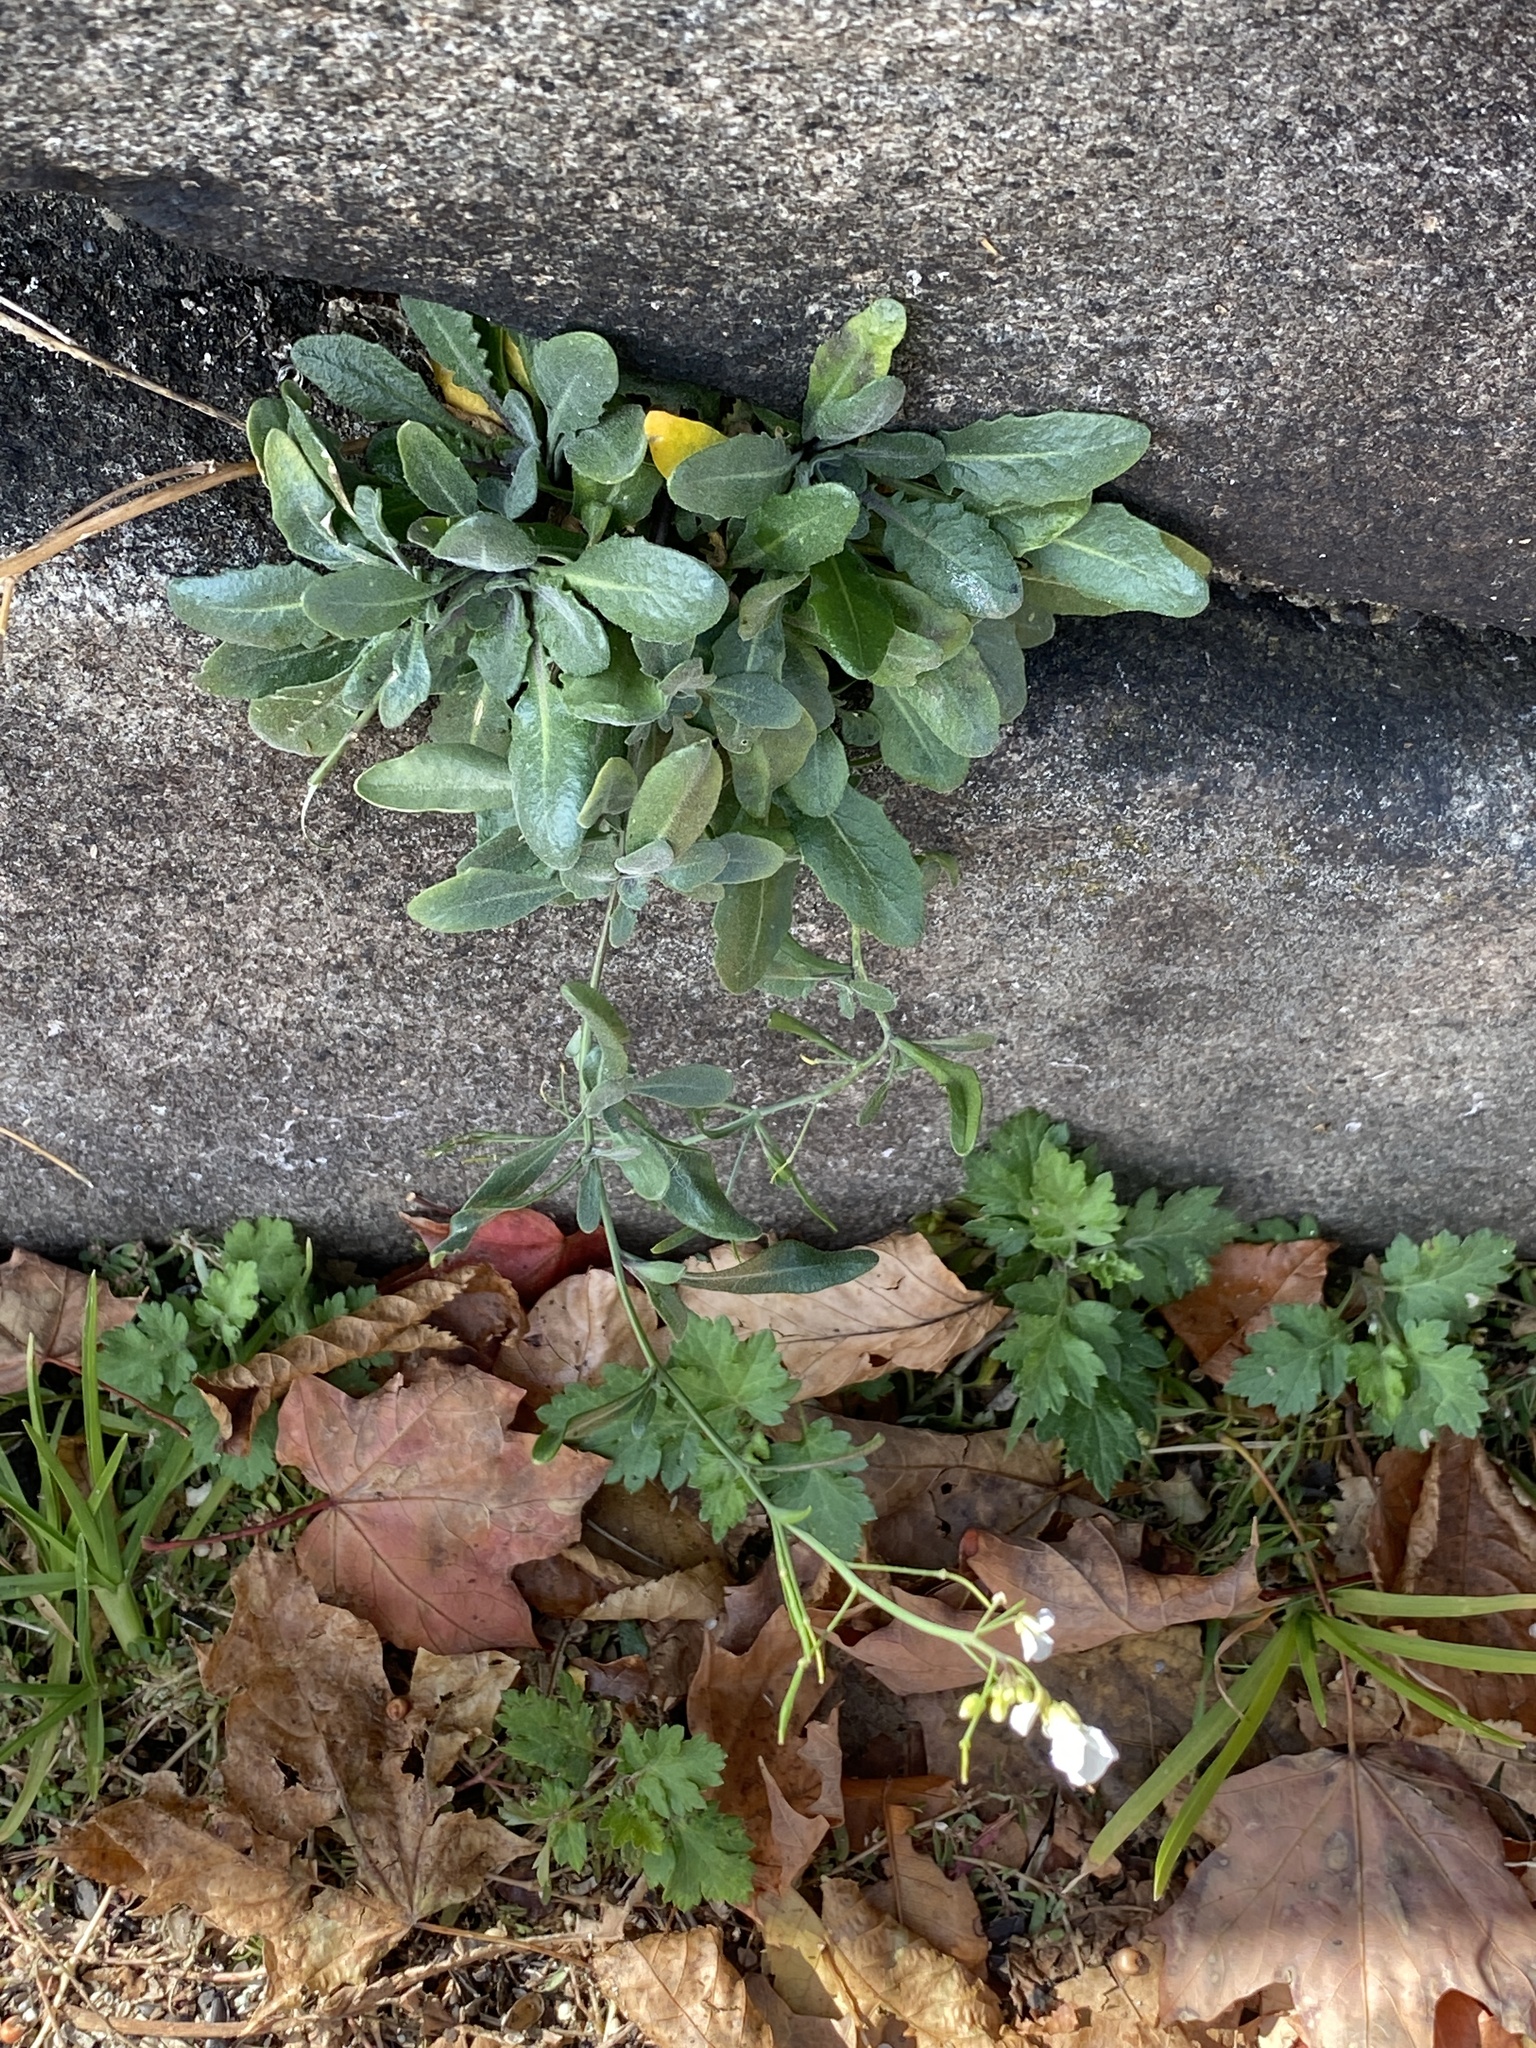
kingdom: Plantae
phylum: Tracheophyta
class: Magnoliopsida
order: Brassicales
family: Brassicaceae
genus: Arabidopsis
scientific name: Arabidopsis lyrata
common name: Lyrate rockcress
